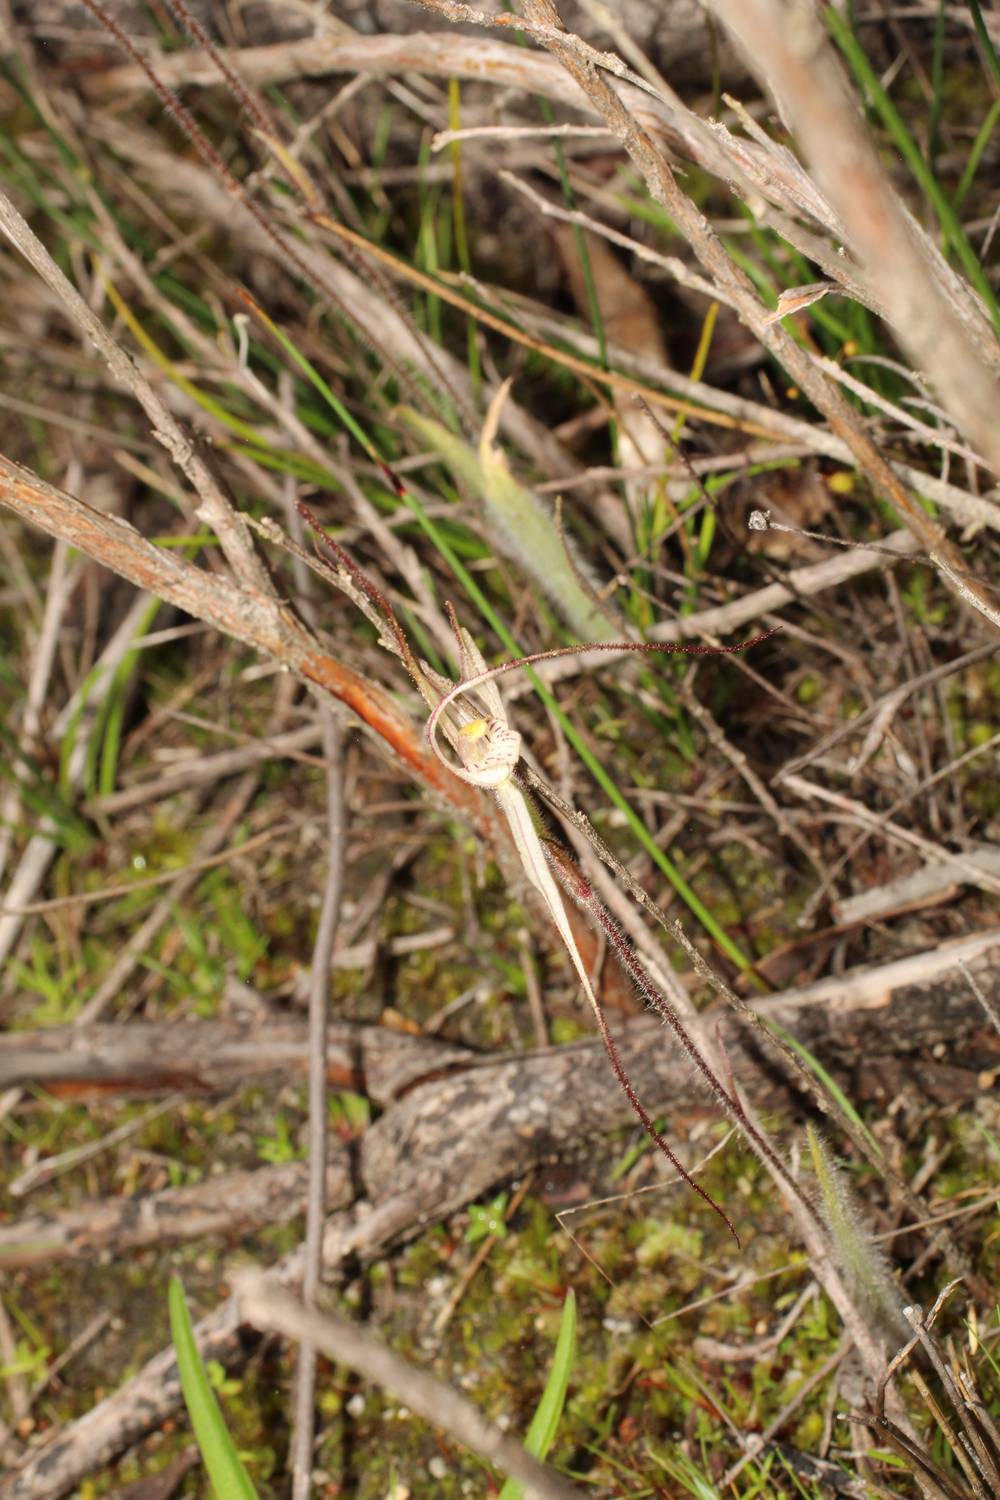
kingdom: Plantae
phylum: Tracheophyta
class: Liliopsida
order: Asparagales
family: Orchidaceae
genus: Caladenia
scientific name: Caladenia varians
